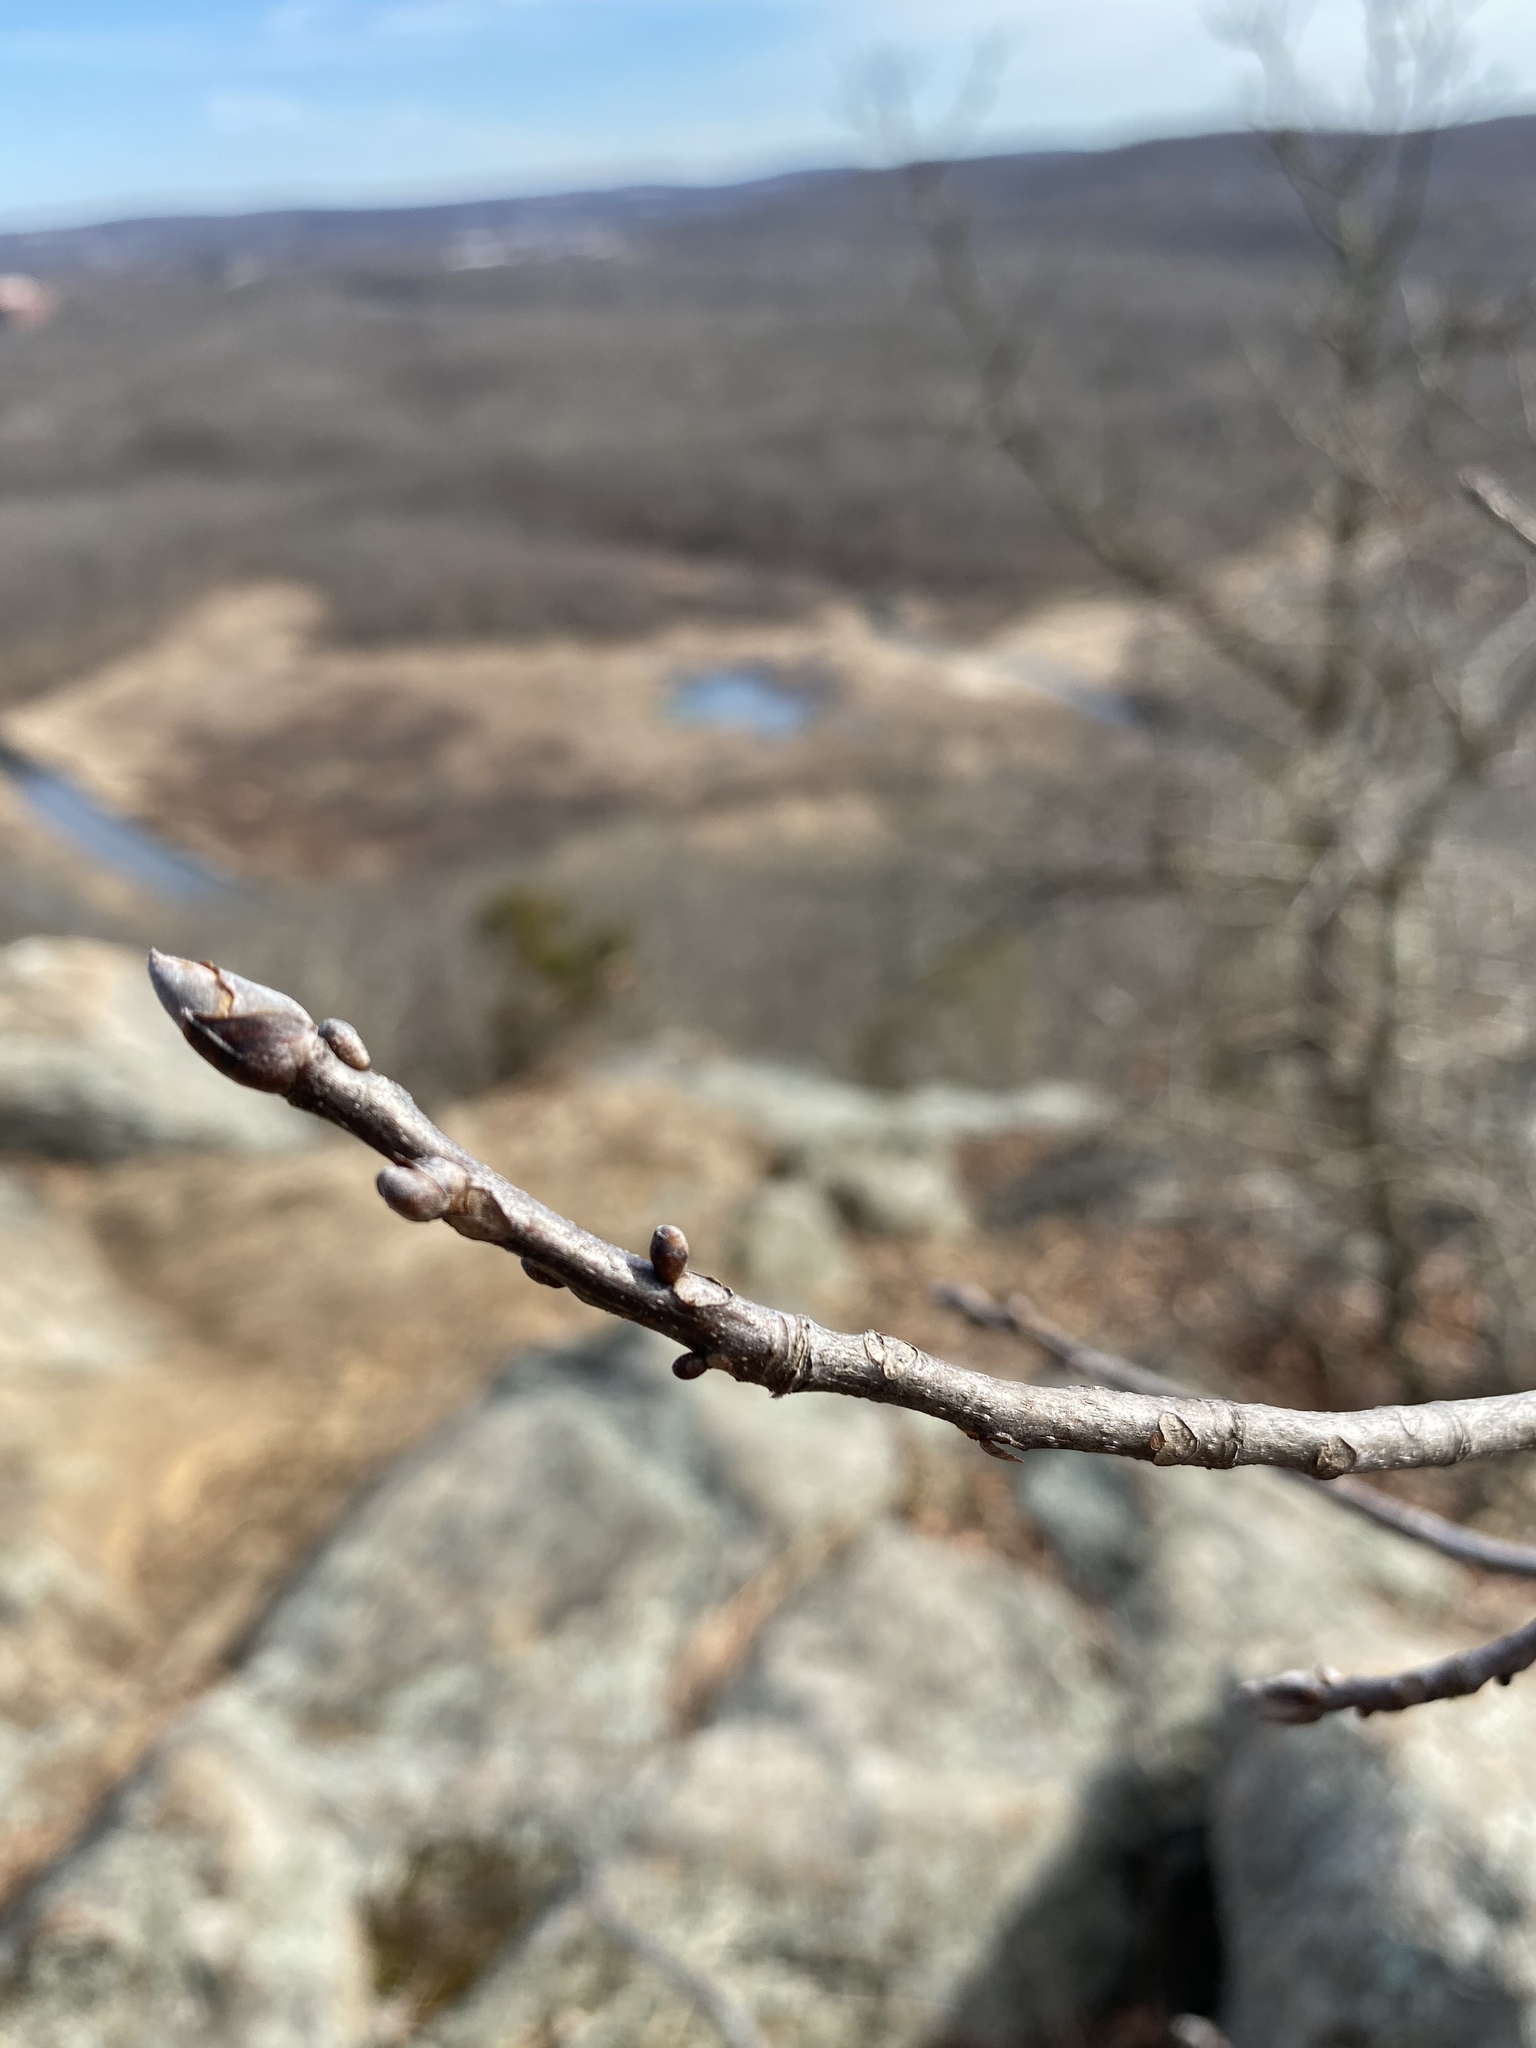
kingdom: Plantae
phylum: Tracheophyta
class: Magnoliopsida
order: Fagales
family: Juglandaceae
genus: Carya
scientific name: Carya glabra
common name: Pignut hickory
